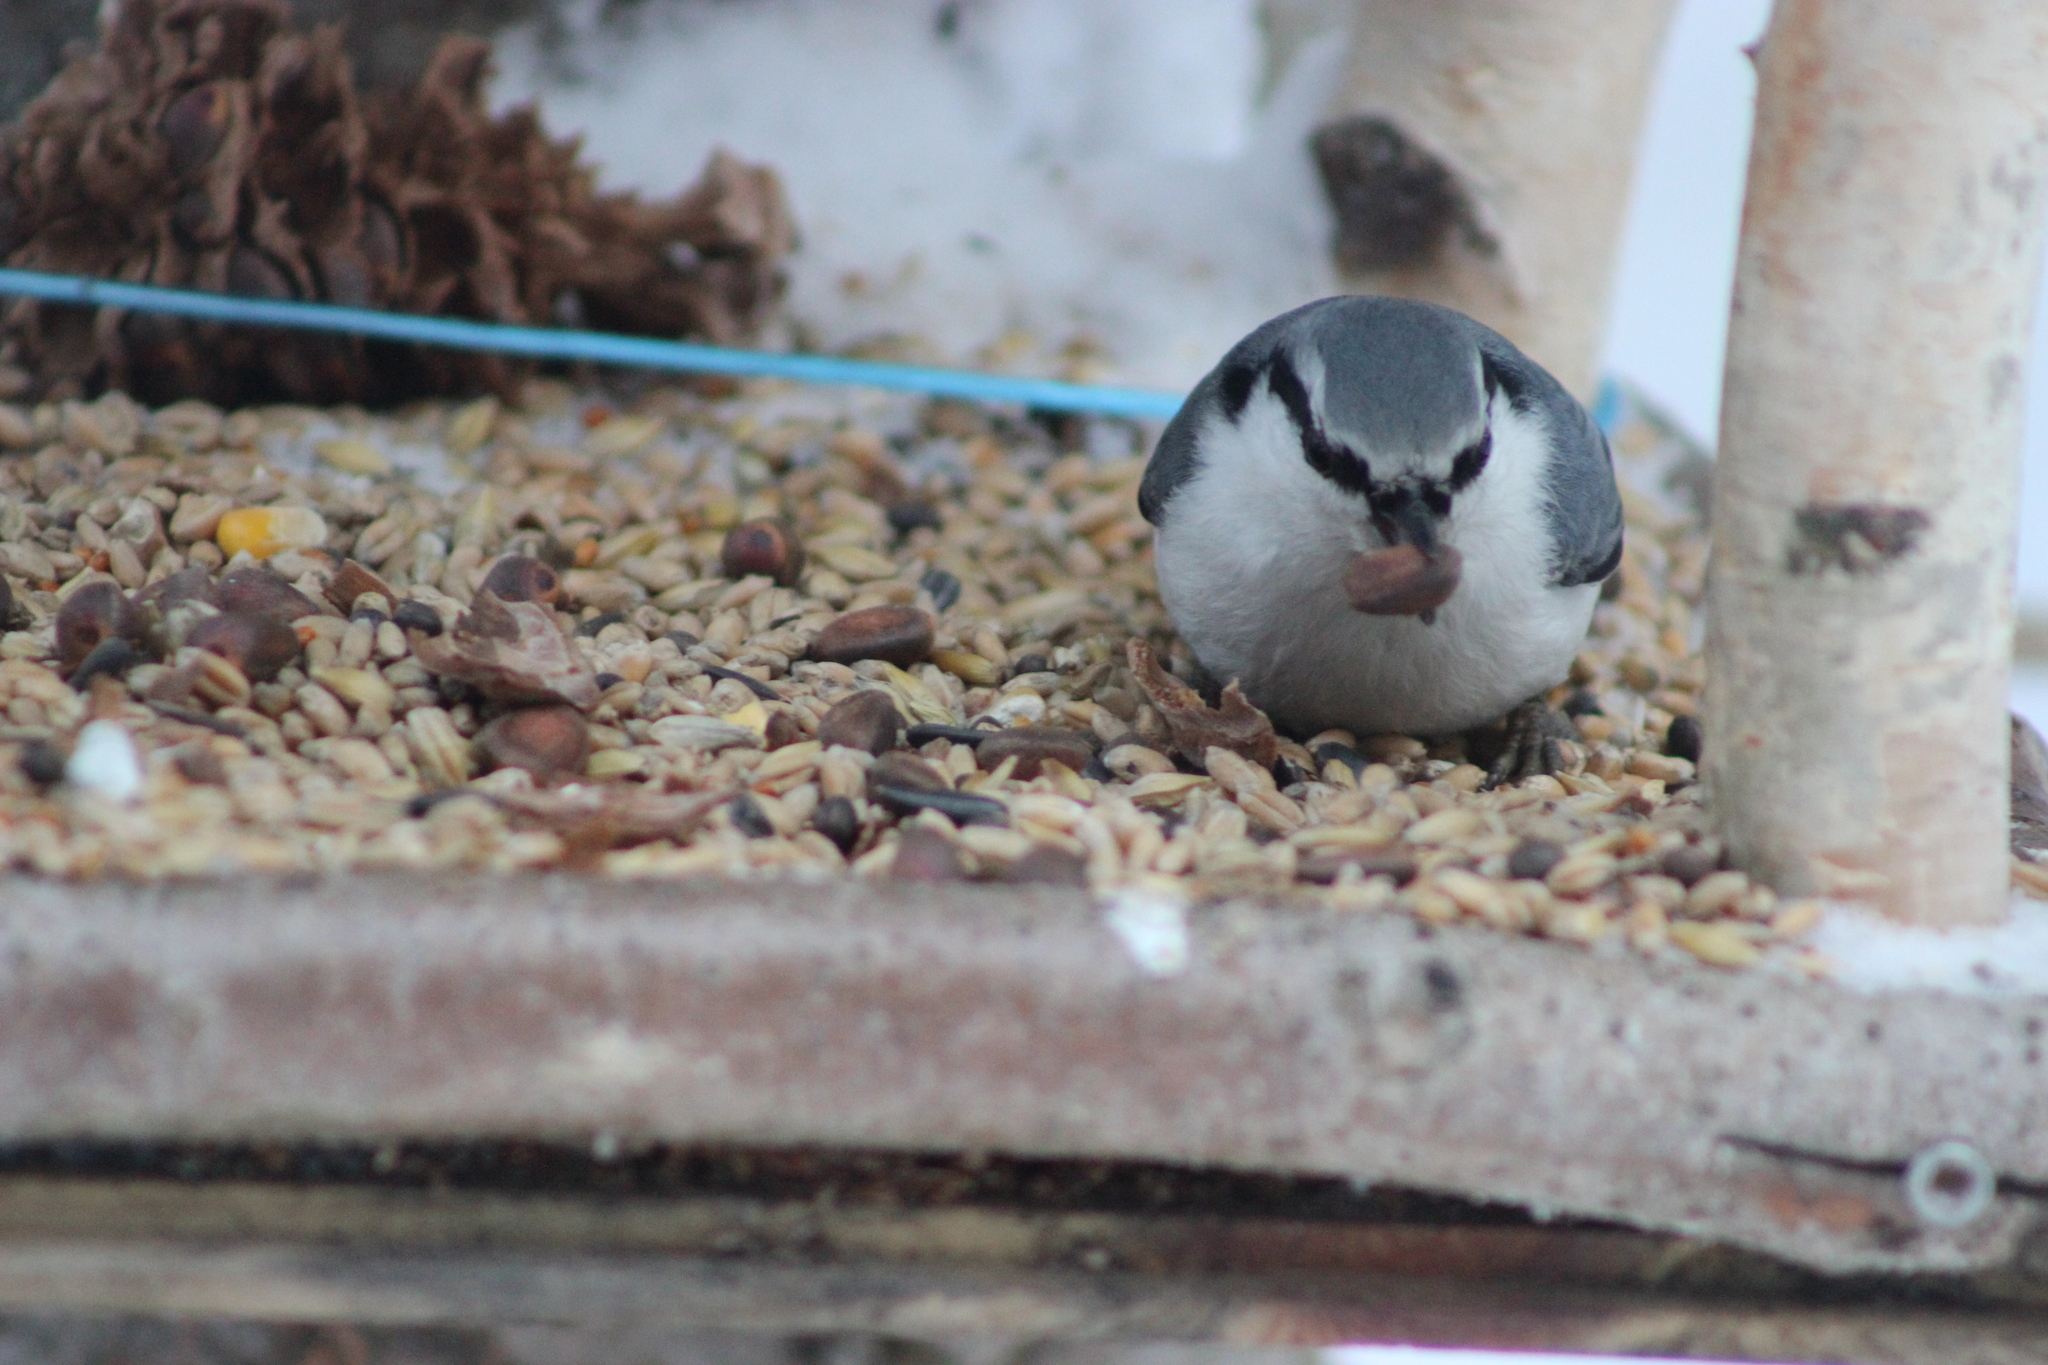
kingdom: Animalia
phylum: Chordata
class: Aves
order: Passeriformes
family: Sittidae
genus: Sitta
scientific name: Sitta europaea
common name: Eurasian nuthatch
